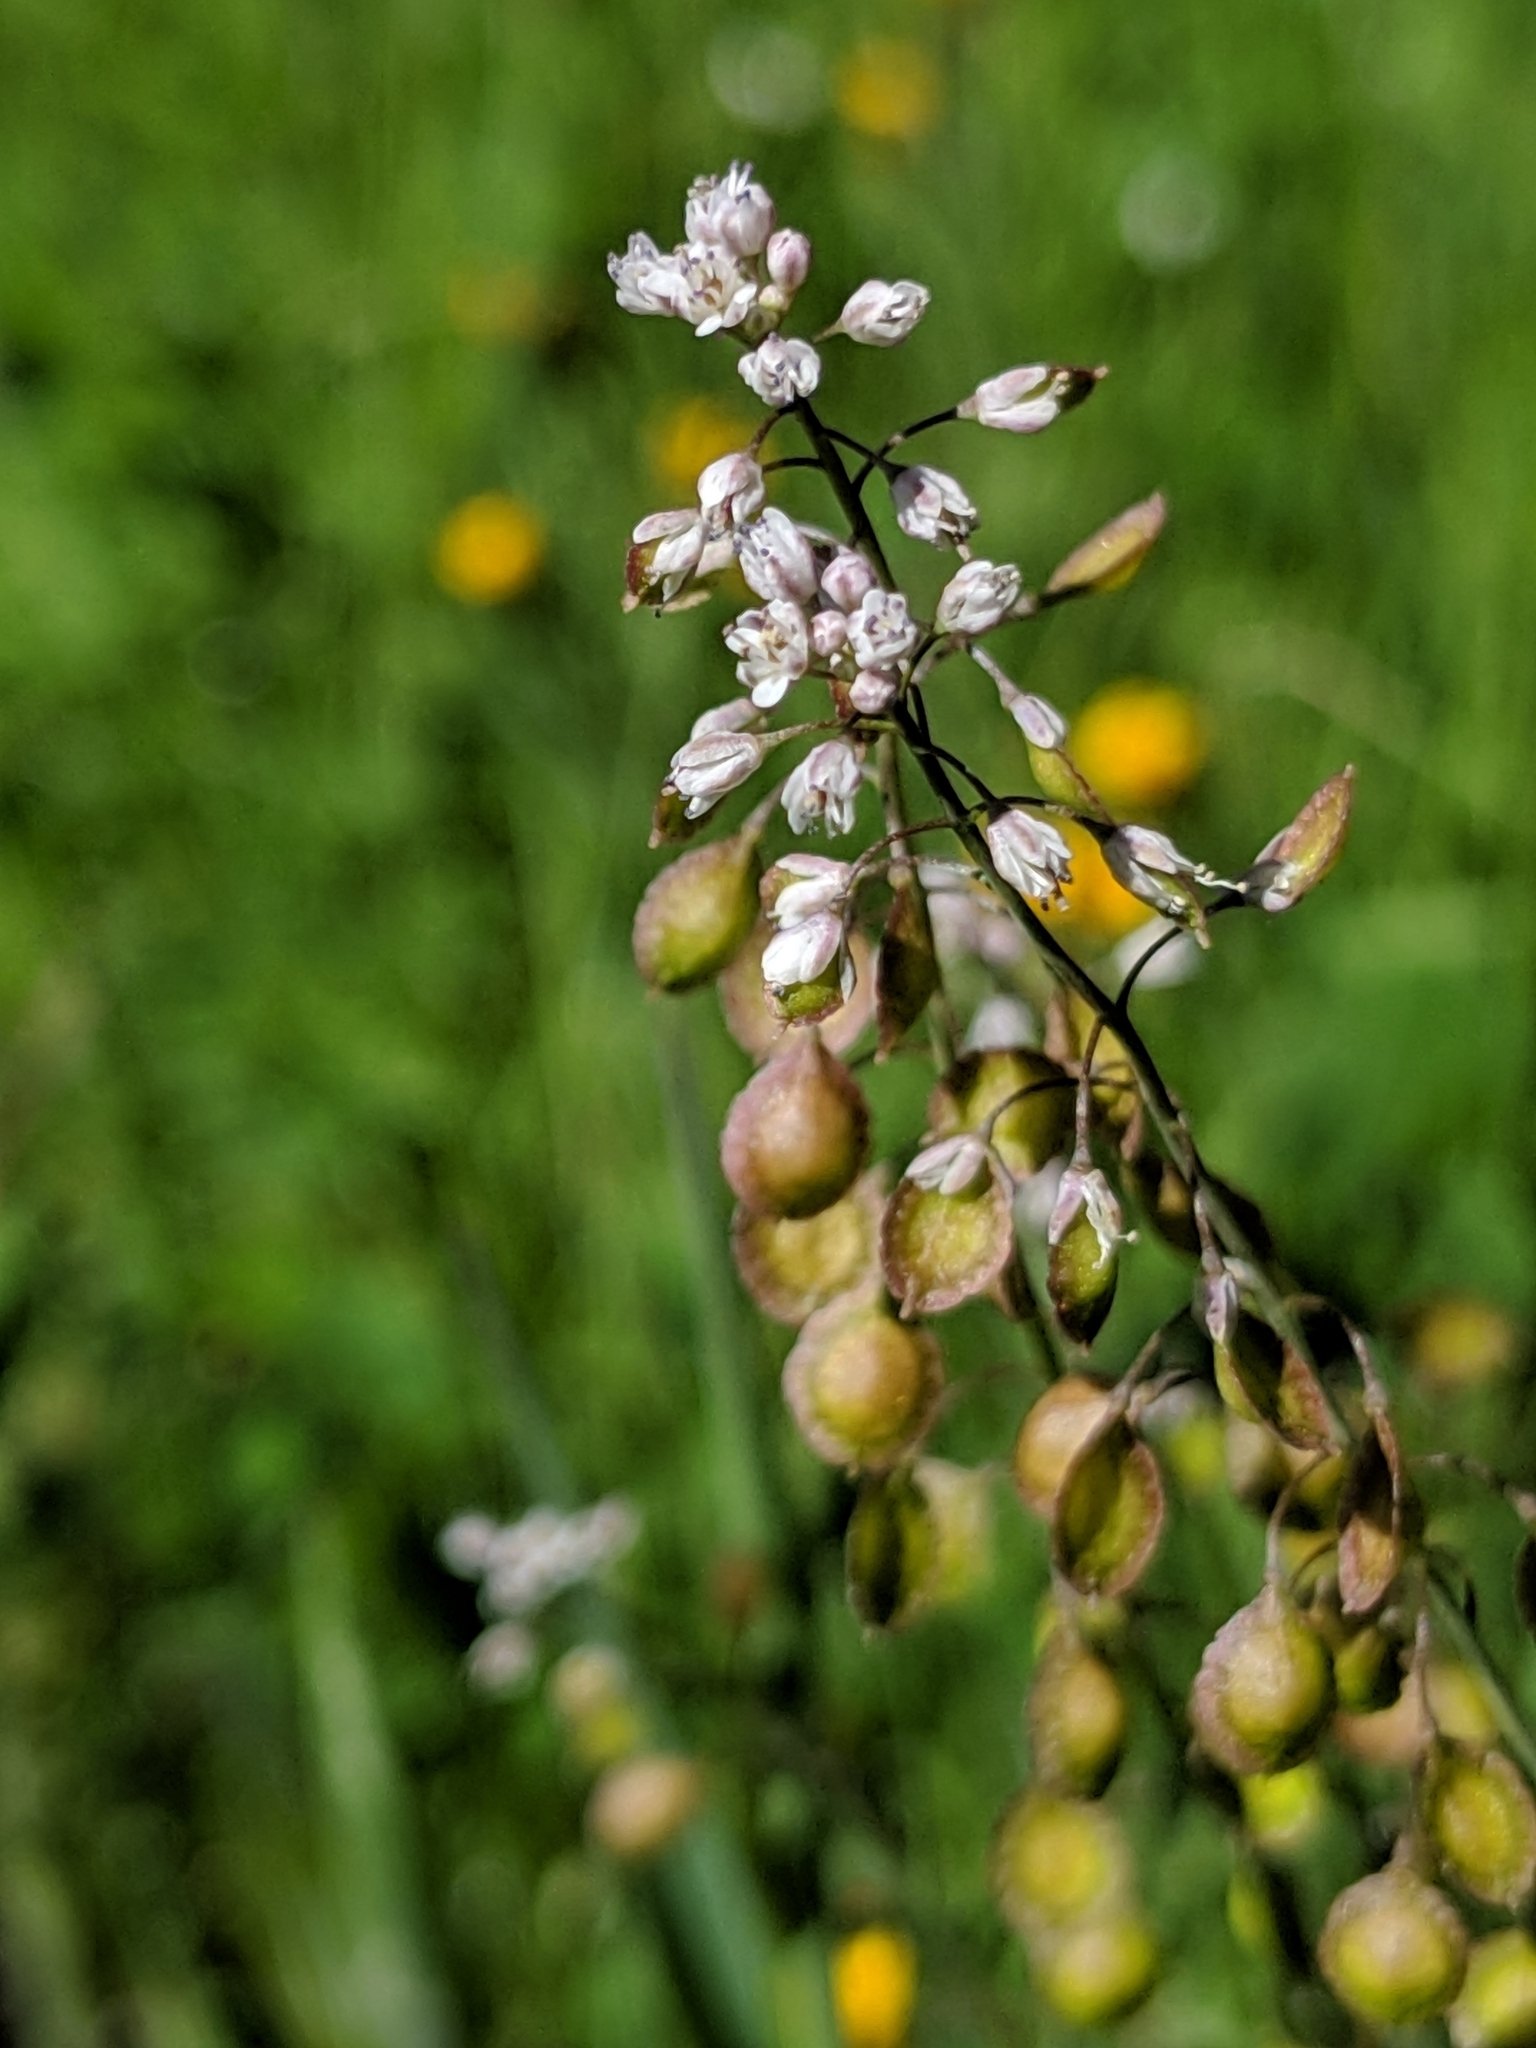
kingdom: Plantae
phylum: Tracheophyta
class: Magnoliopsida
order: Brassicales
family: Brassicaceae
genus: Thysanocarpus
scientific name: Thysanocarpus laciniatus
